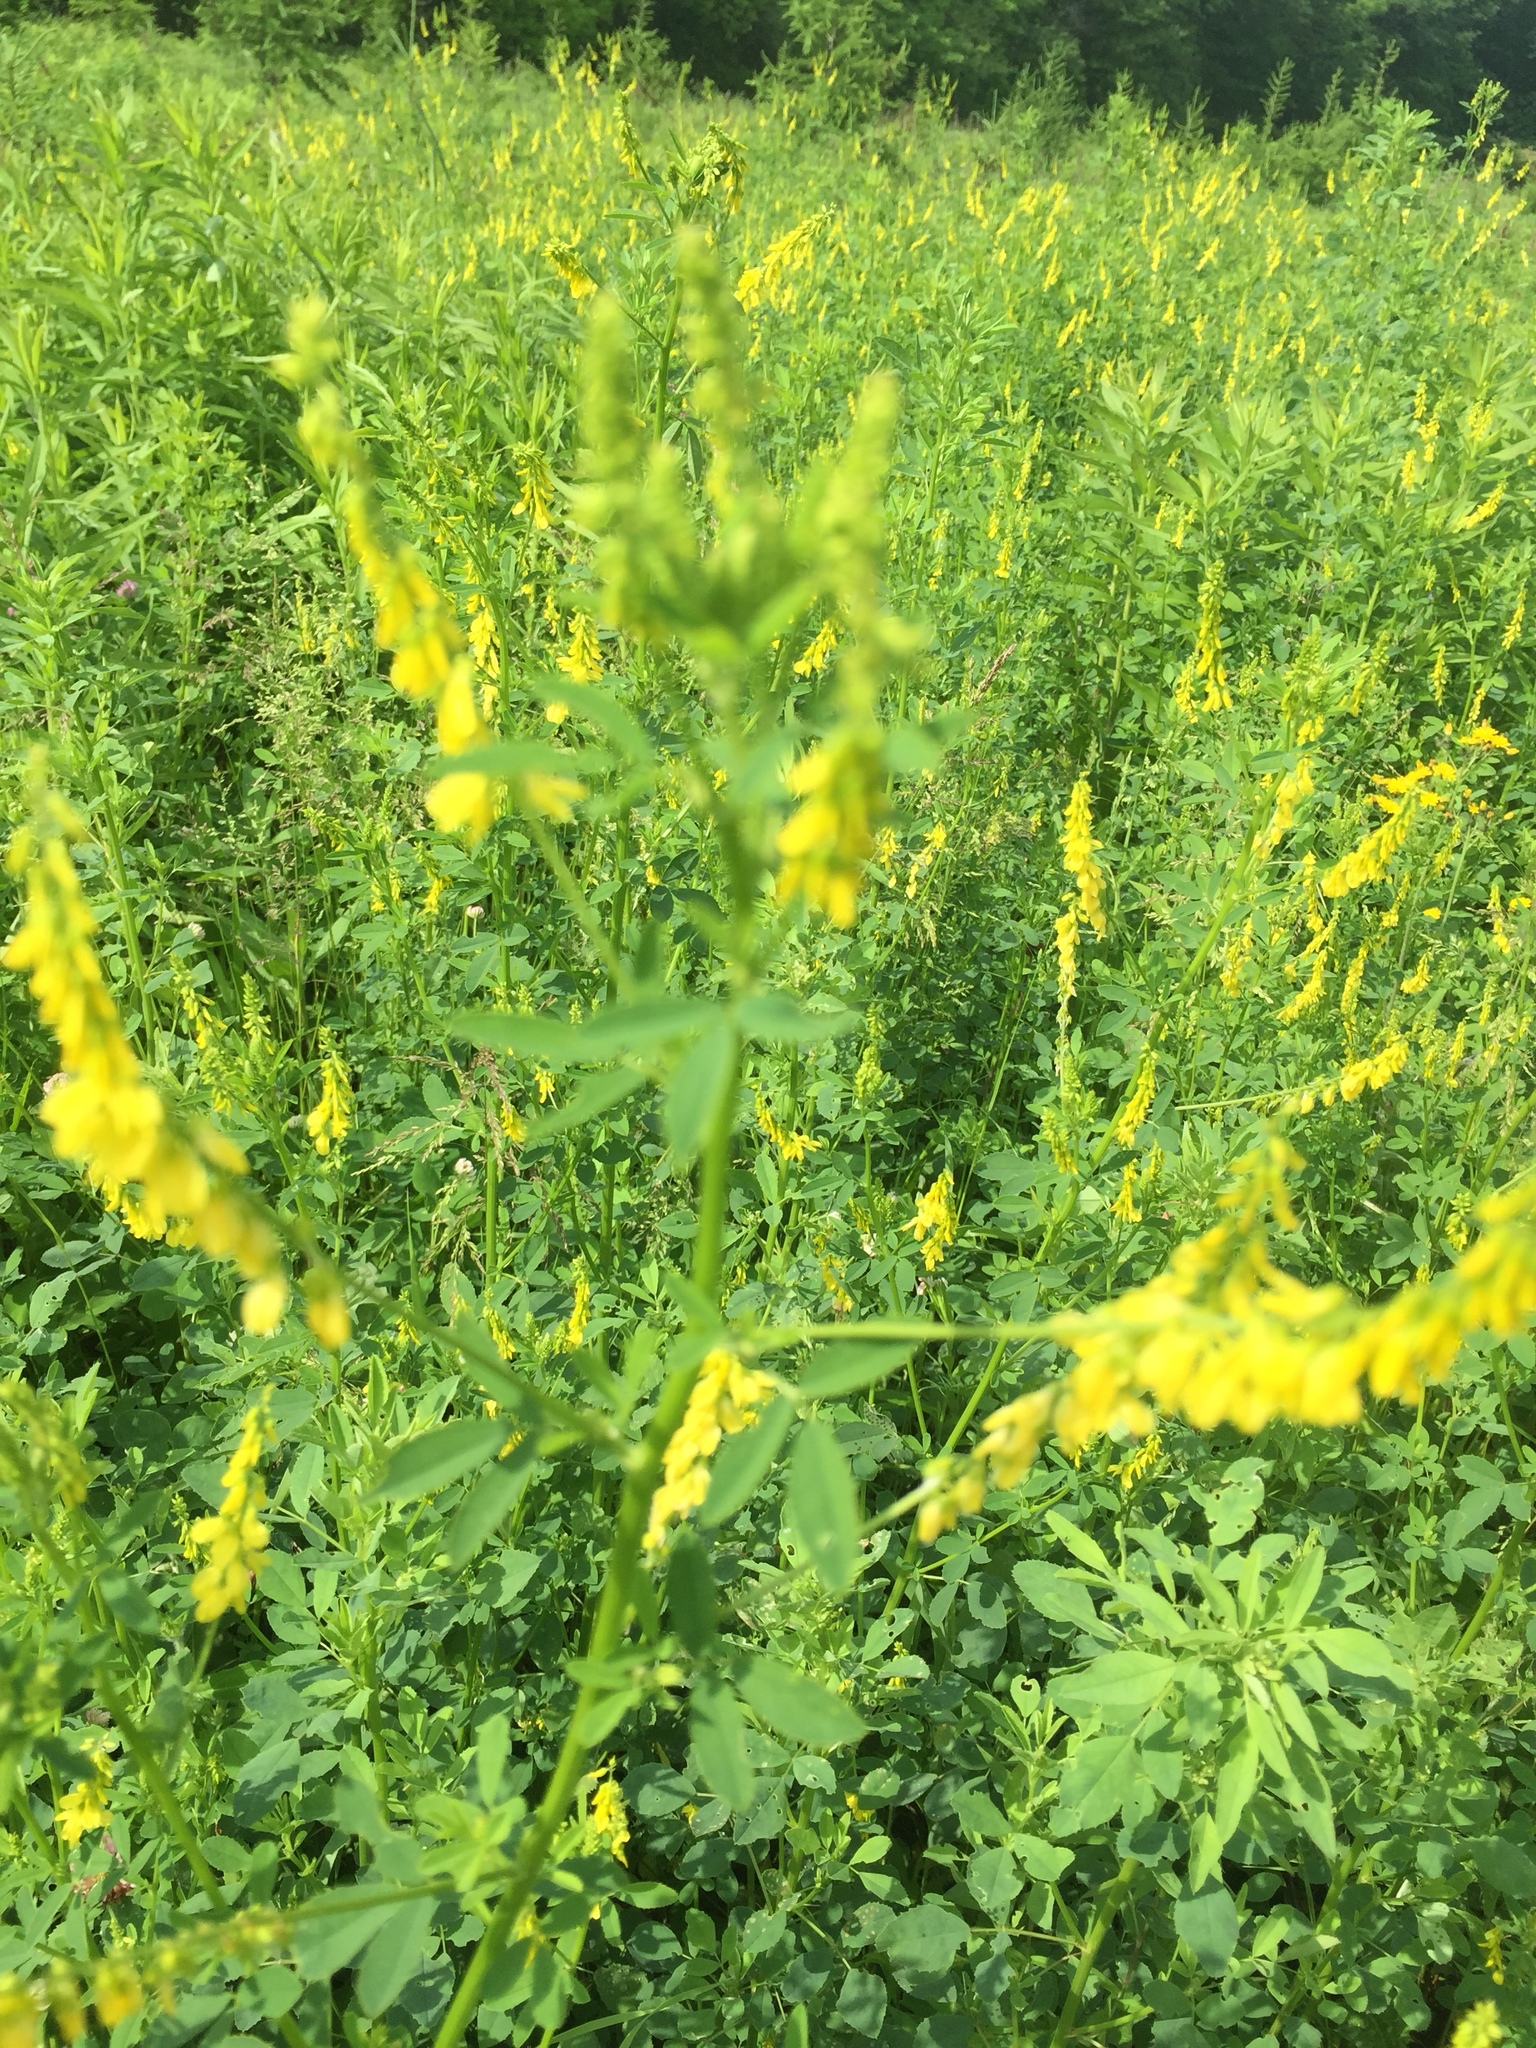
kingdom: Plantae
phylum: Tracheophyta
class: Magnoliopsida
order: Fabales
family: Fabaceae
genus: Melilotus
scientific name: Melilotus officinalis
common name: Sweetclover
